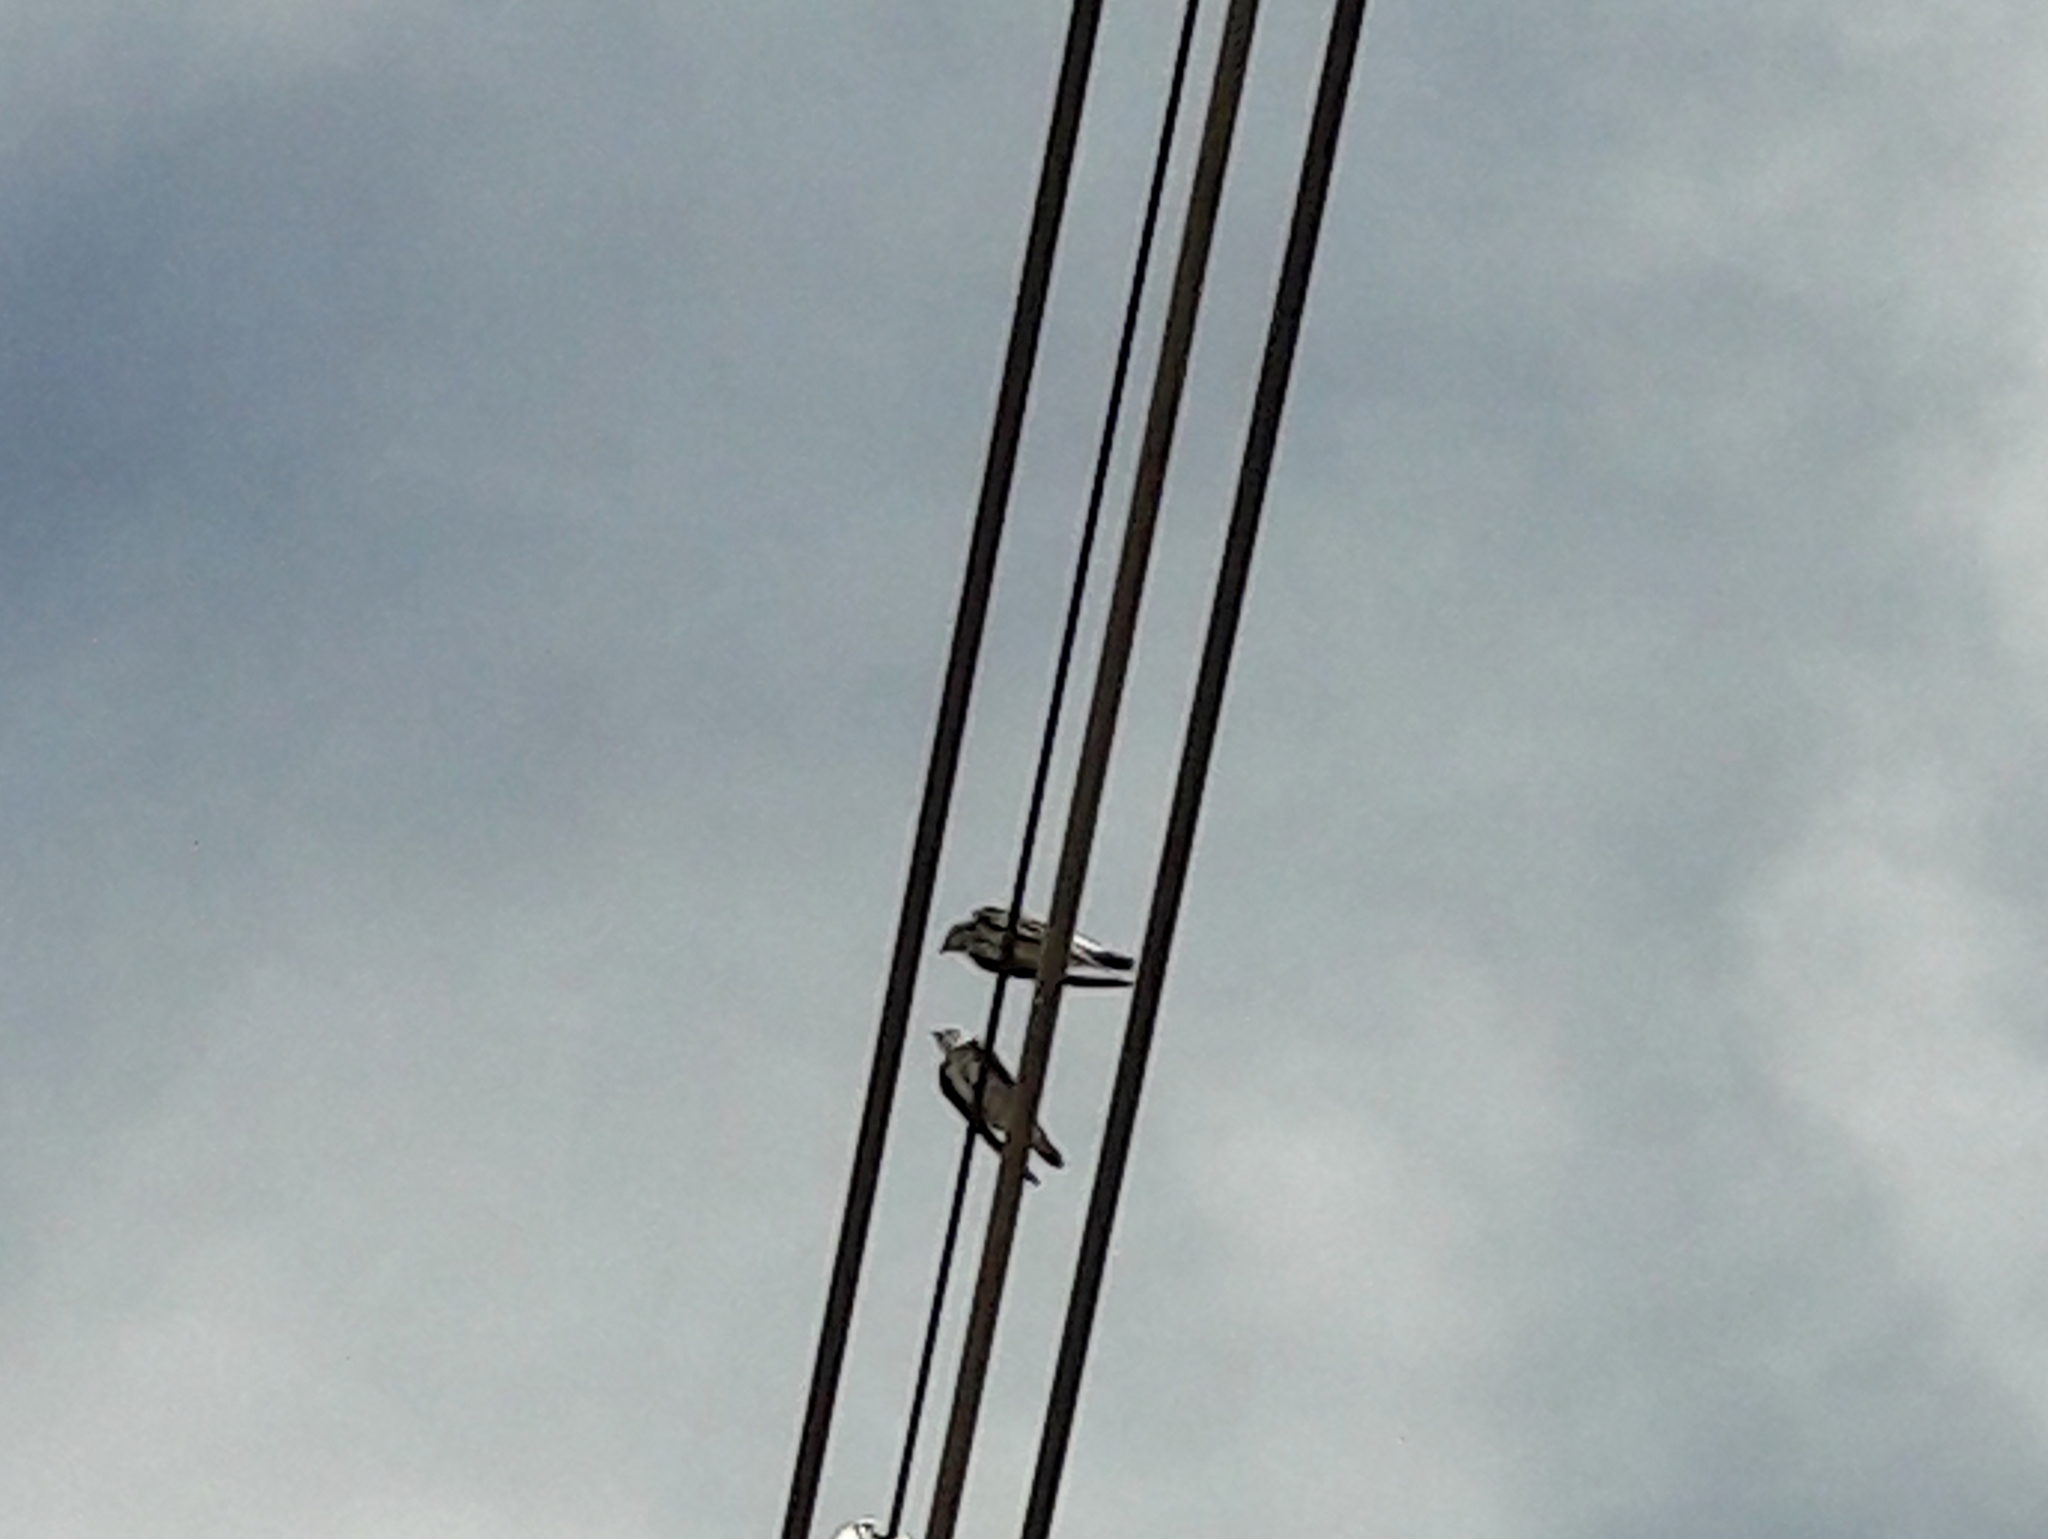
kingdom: Animalia
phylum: Chordata
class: Aves
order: Passeriformes
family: Hirundinidae
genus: Progne
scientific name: Progne tapera
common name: Brown-chested martin
